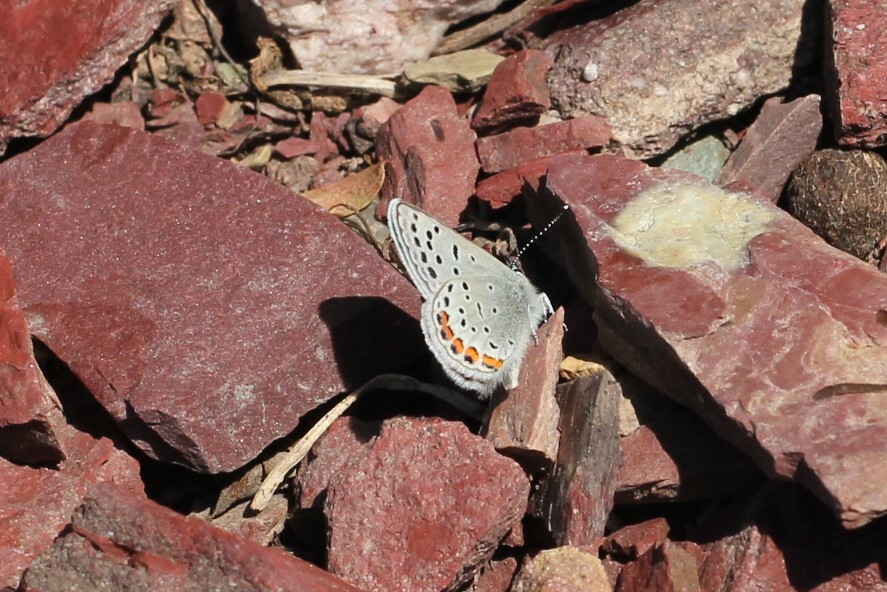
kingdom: Animalia
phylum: Arthropoda
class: Insecta
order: Lepidoptera
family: Lycaenidae
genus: Icaricia
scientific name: Icaricia lupini
